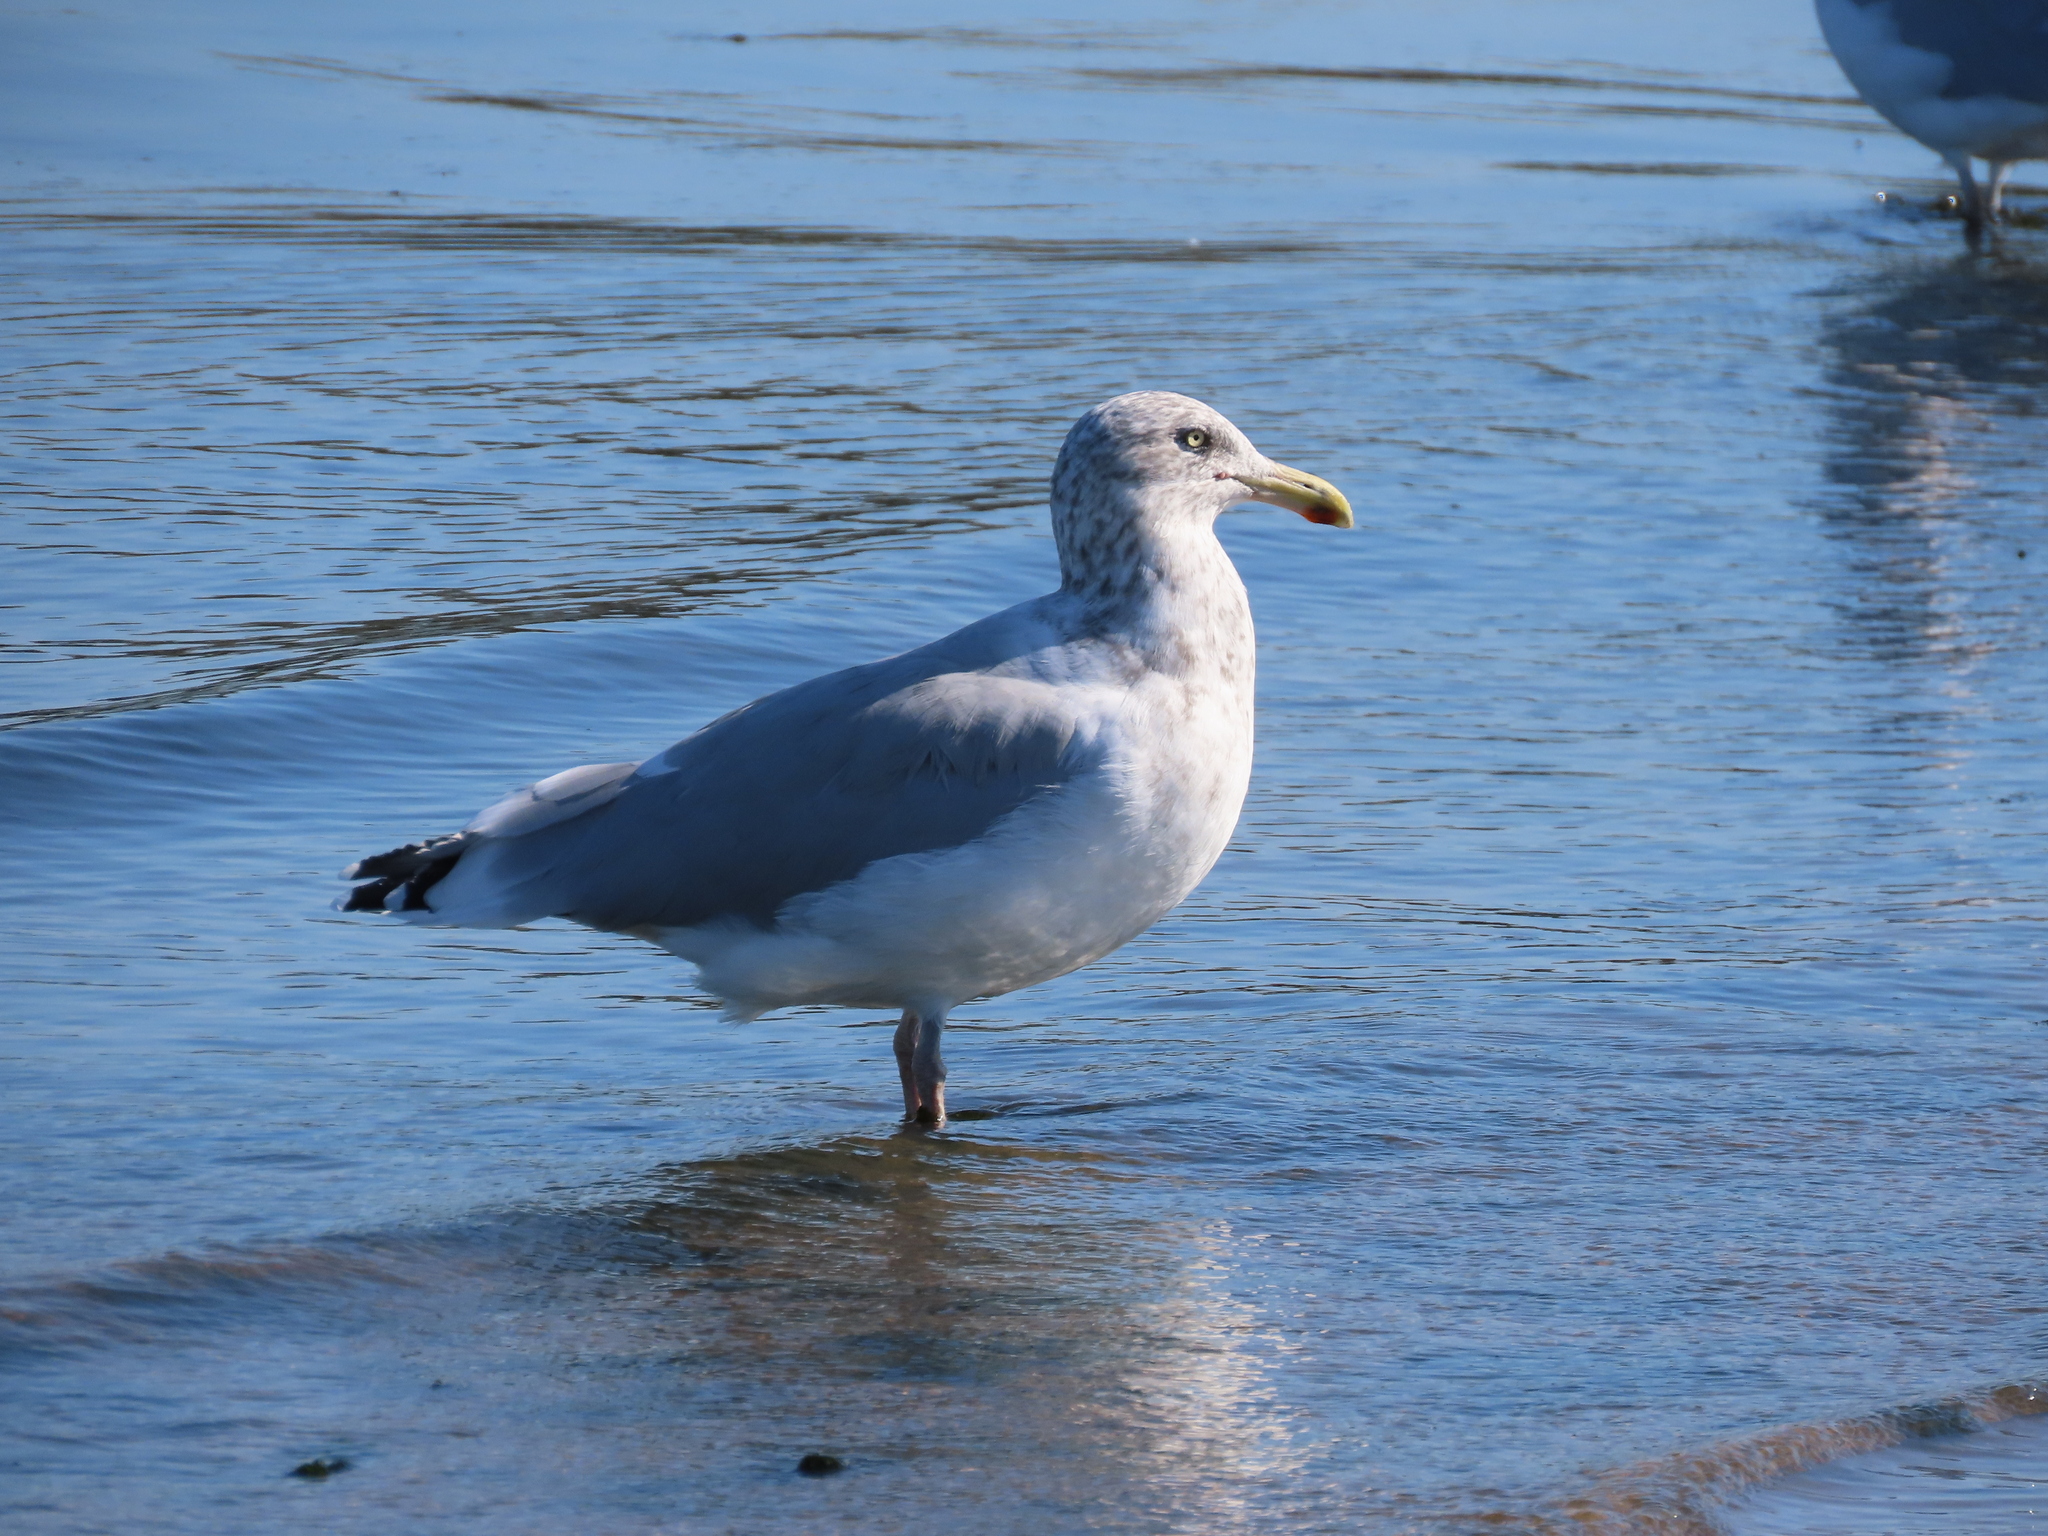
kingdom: Animalia
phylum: Chordata
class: Aves
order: Charadriiformes
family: Laridae
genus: Larus
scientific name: Larus argentatus
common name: Herring gull
